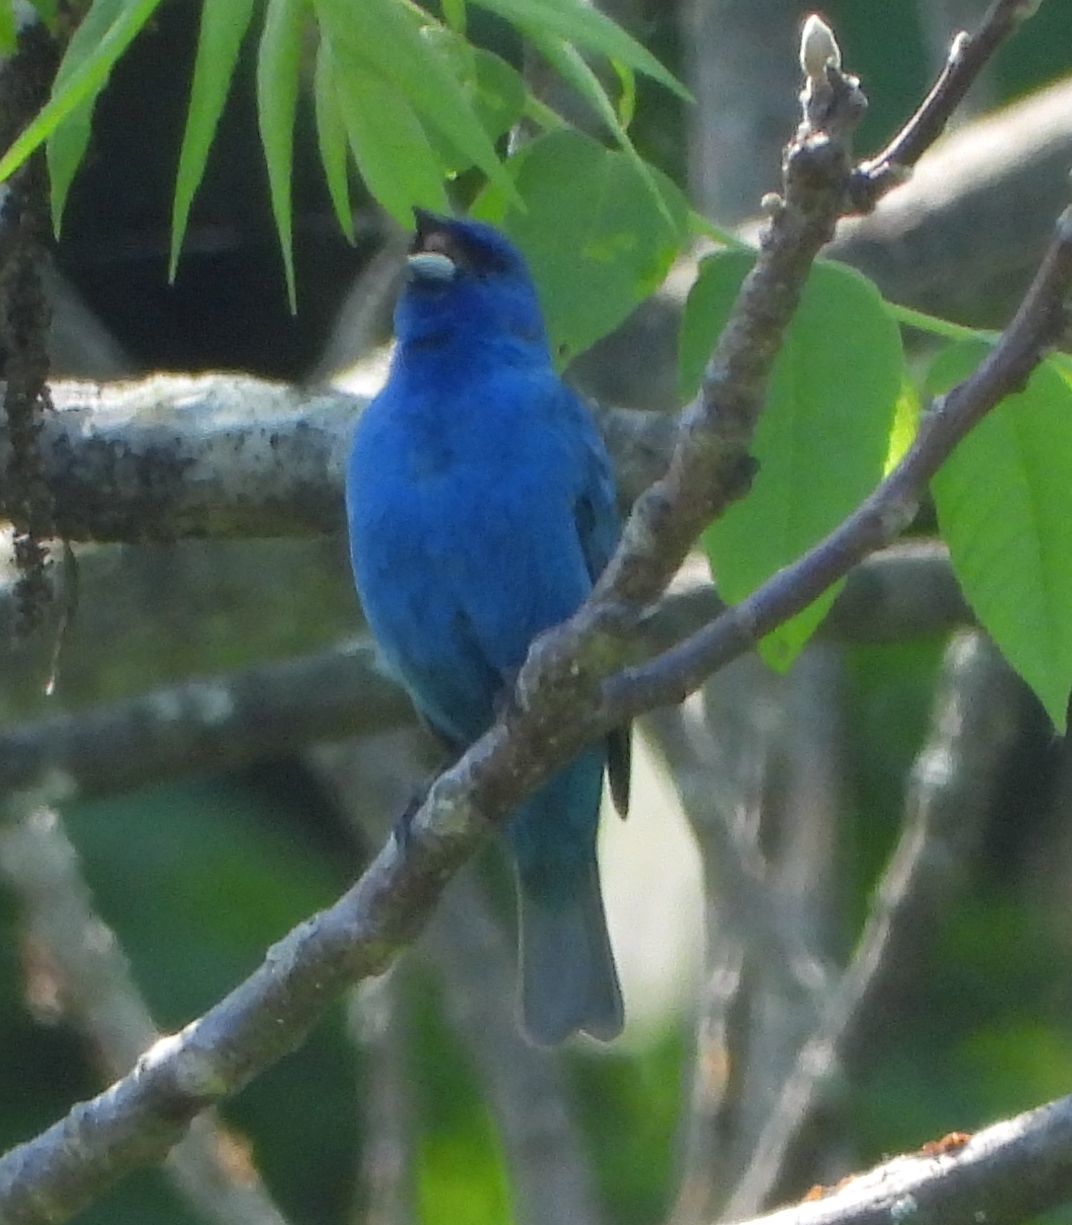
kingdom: Animalia
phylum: Chordata
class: Aves
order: Passeriformes
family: Cardinalidae
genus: Passerina
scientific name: Passerina cyanea
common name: Indigo bunting
